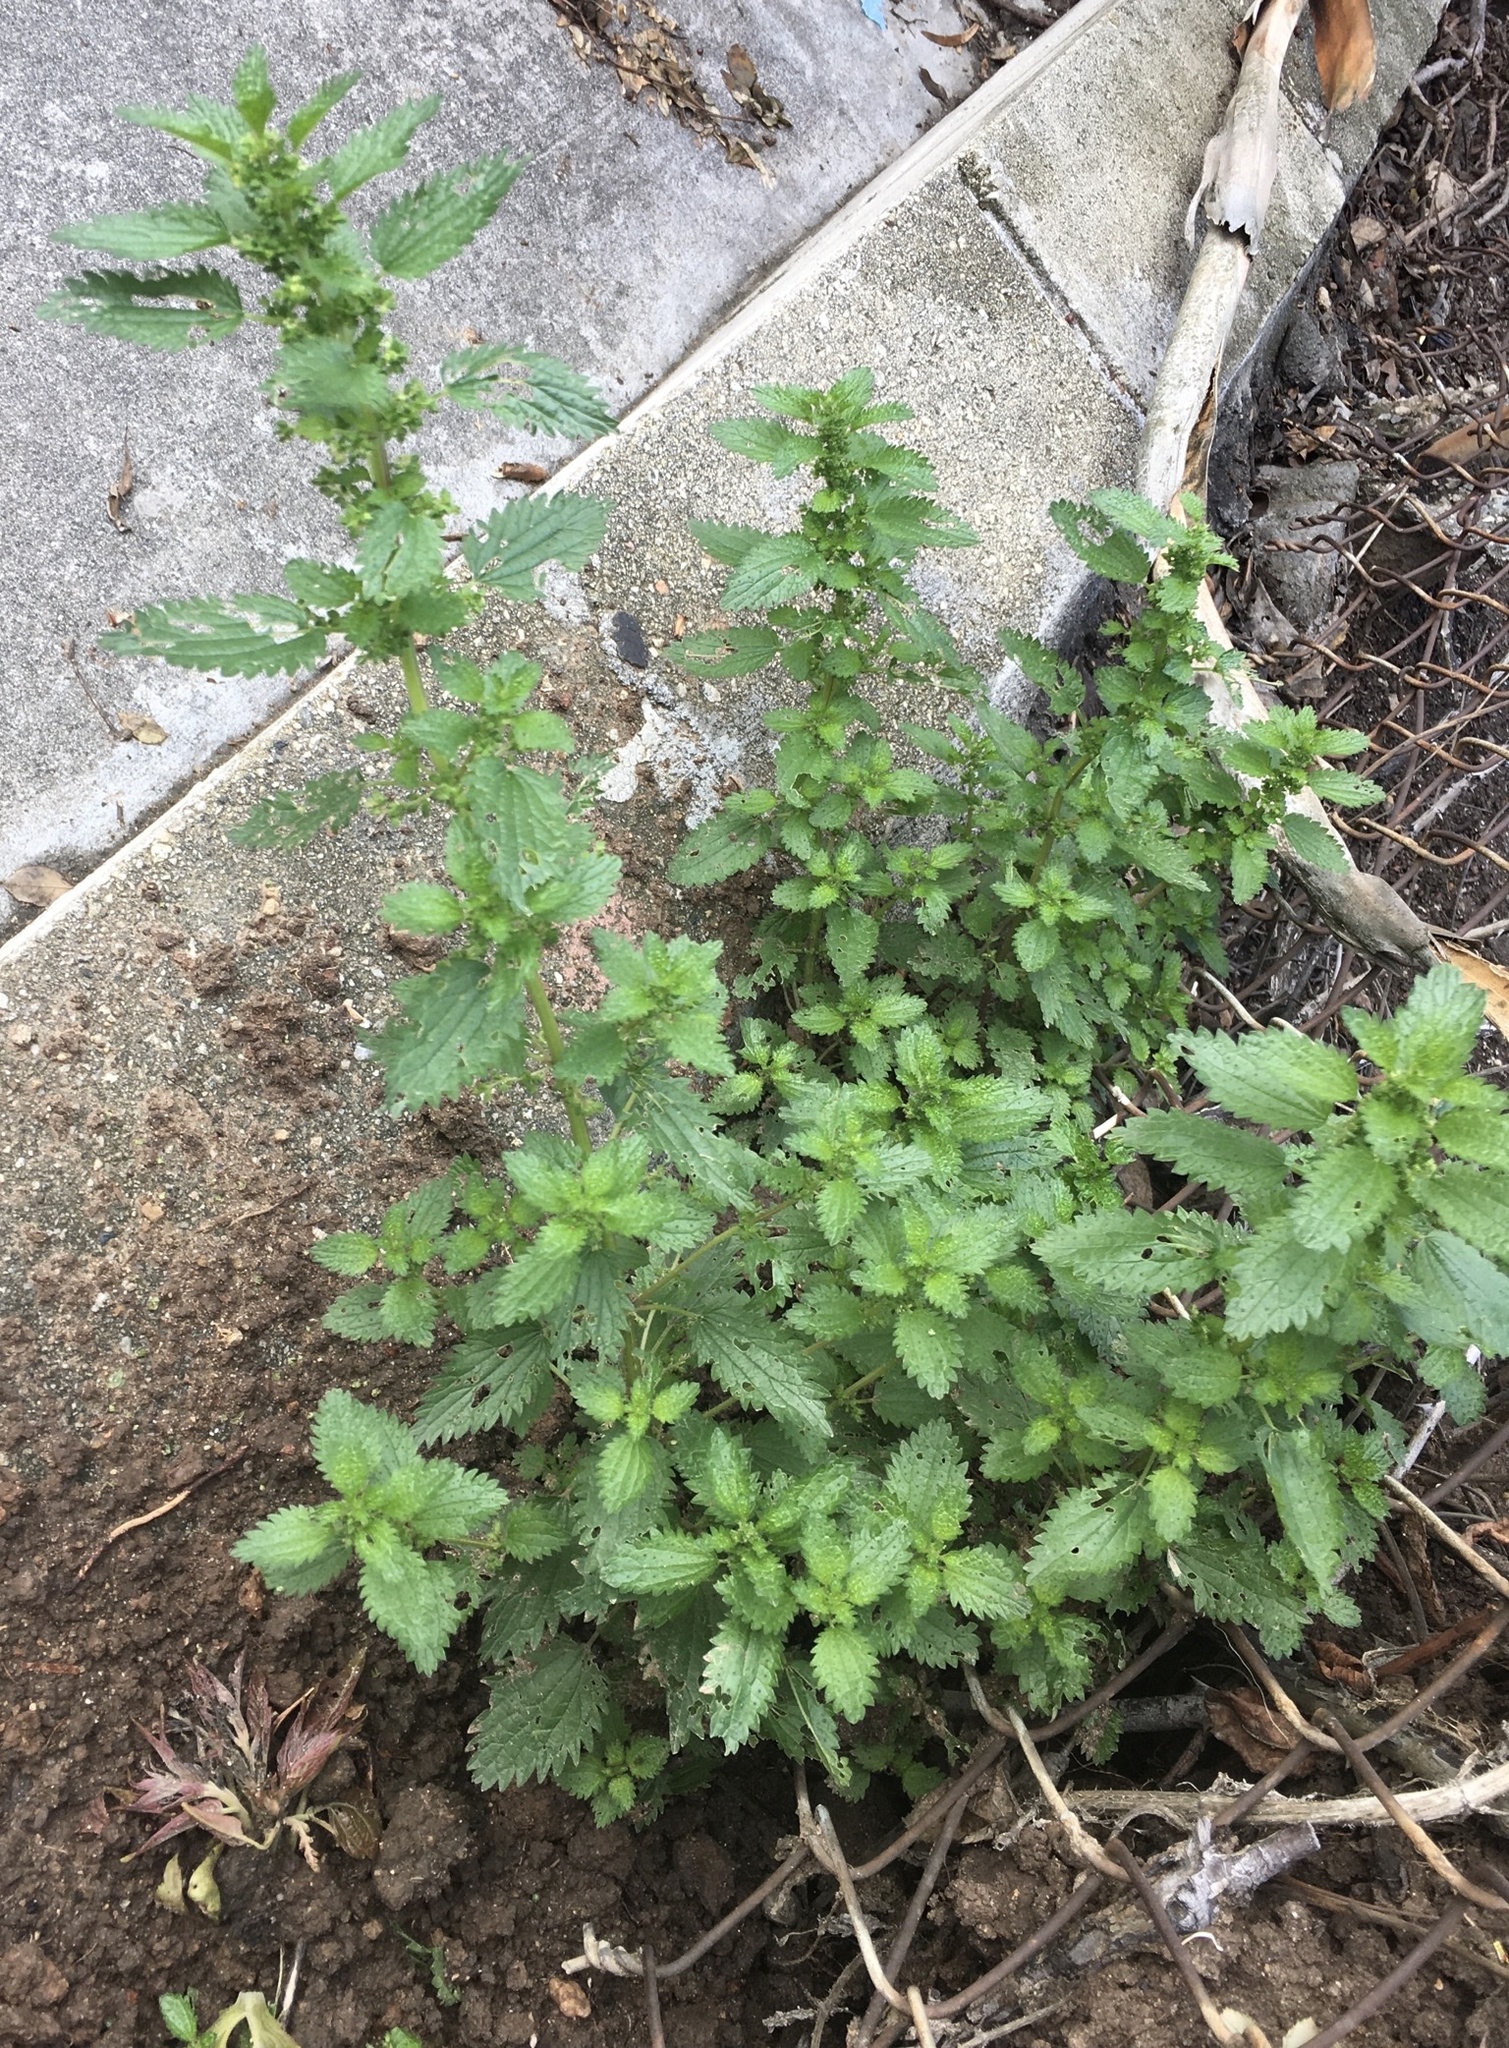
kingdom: Plantae
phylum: Tracheophyta
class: Magnoliopsida
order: Rosales
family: Urticaceae
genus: Urtica
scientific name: Urtica urens
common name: Dwarf nettle
